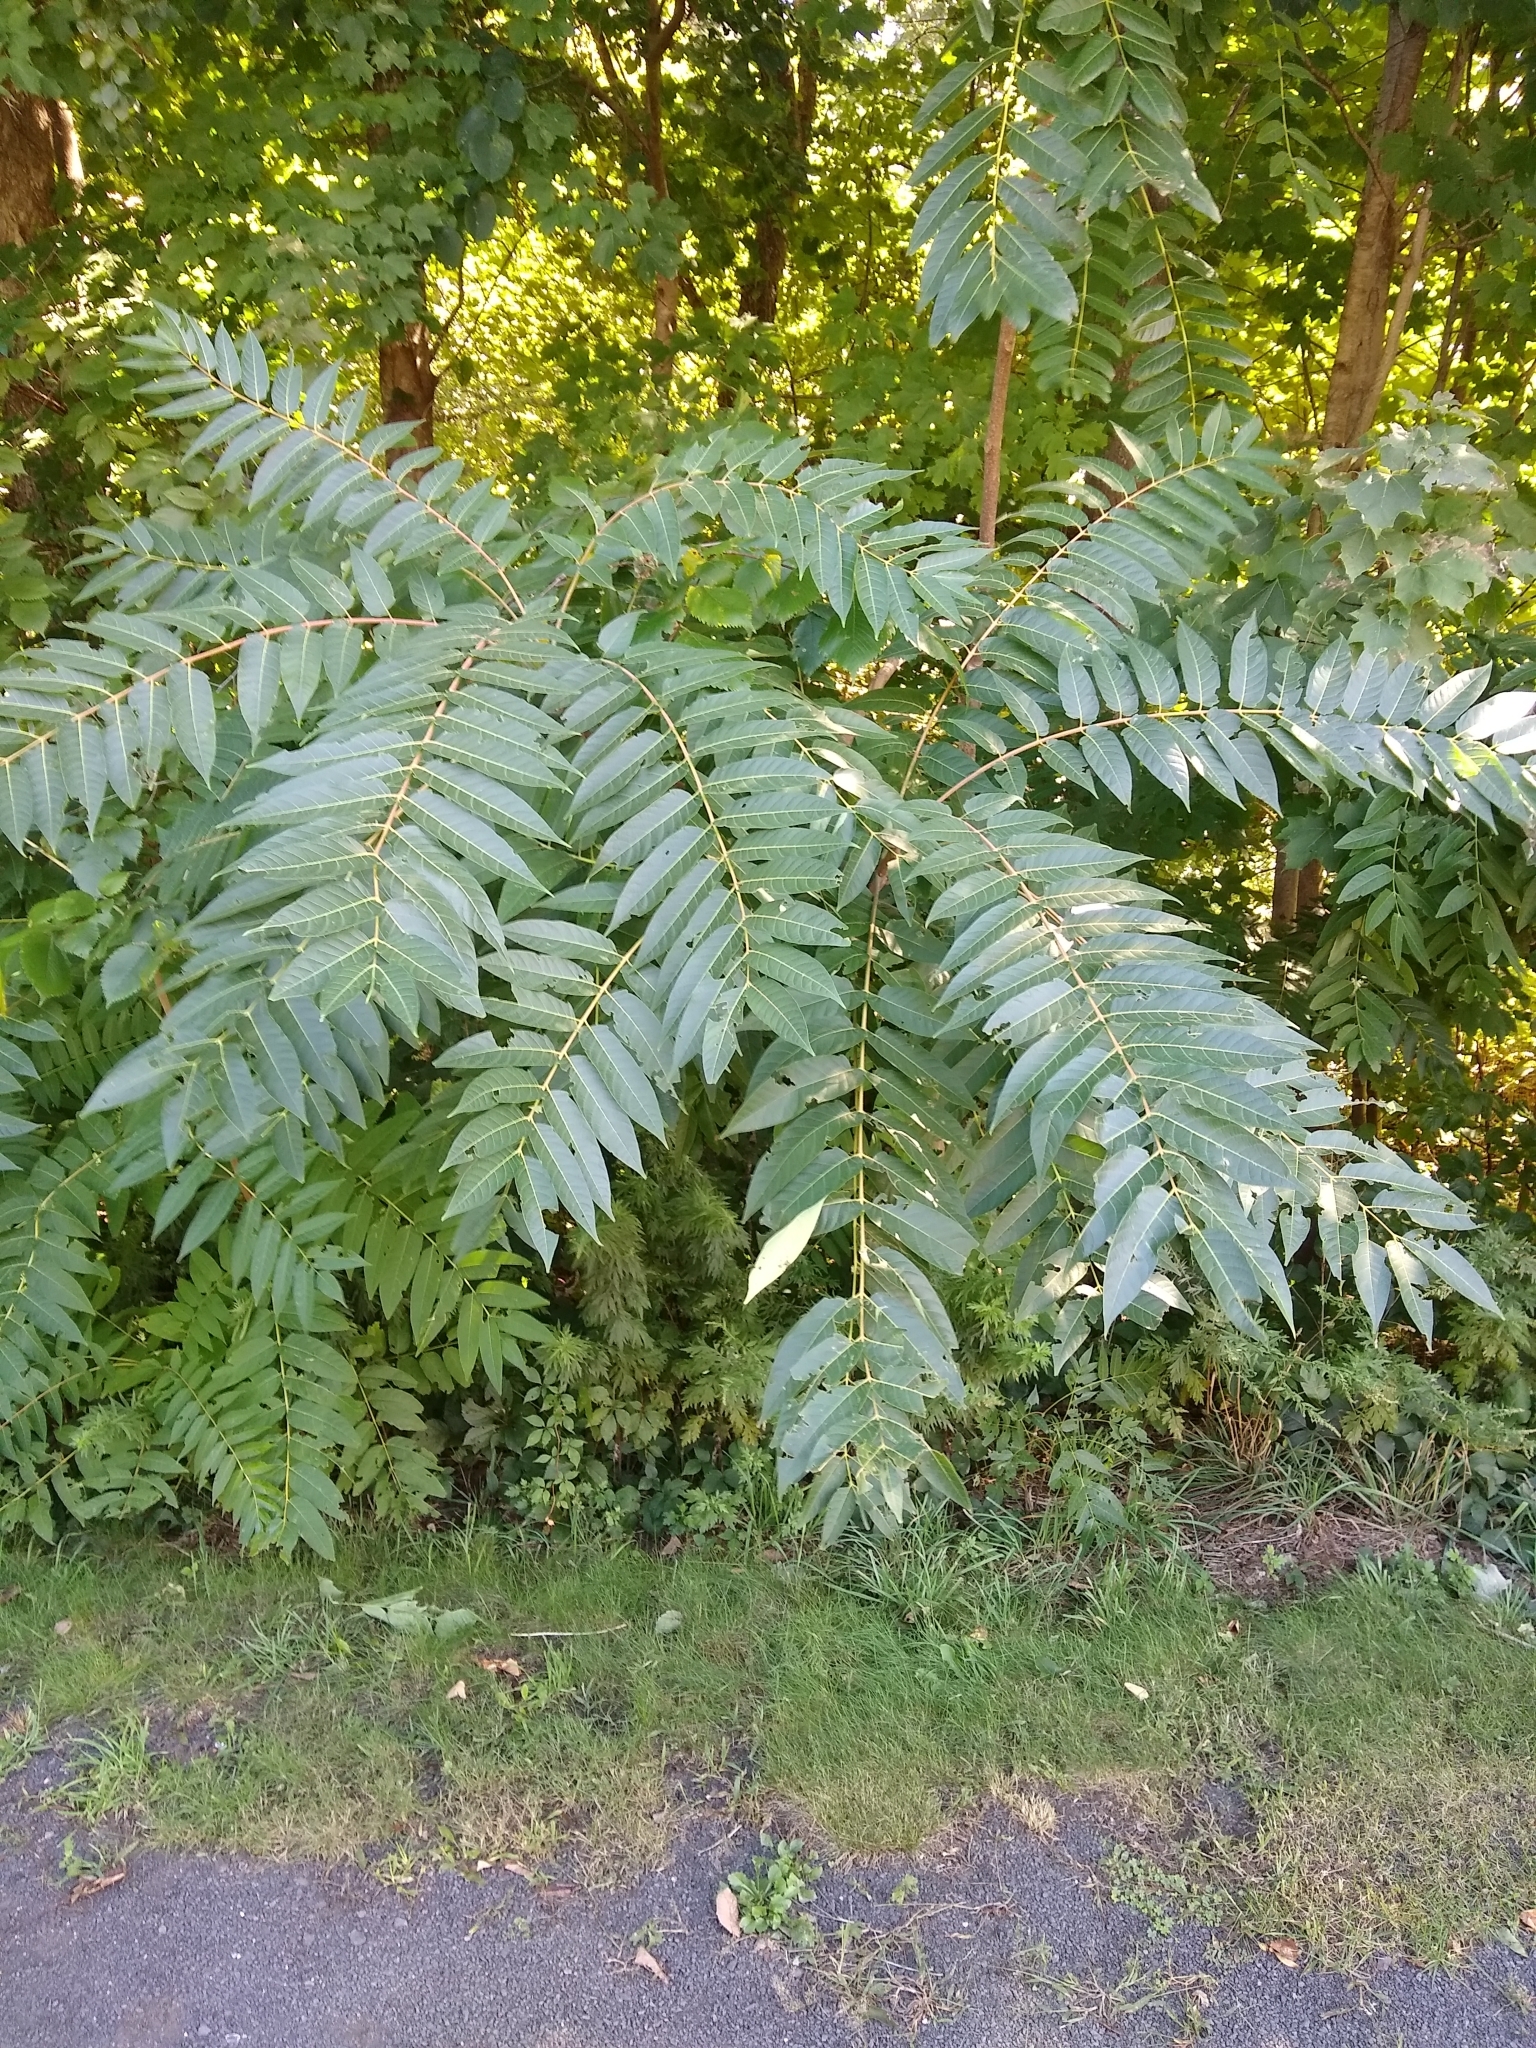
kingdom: Plantae
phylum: Tracheophyta
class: Magnoliopsida
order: Sapindales
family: Simaroubaceae
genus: Ailanthus
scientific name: Ailanthus altissima
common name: Tree-of-heaven
